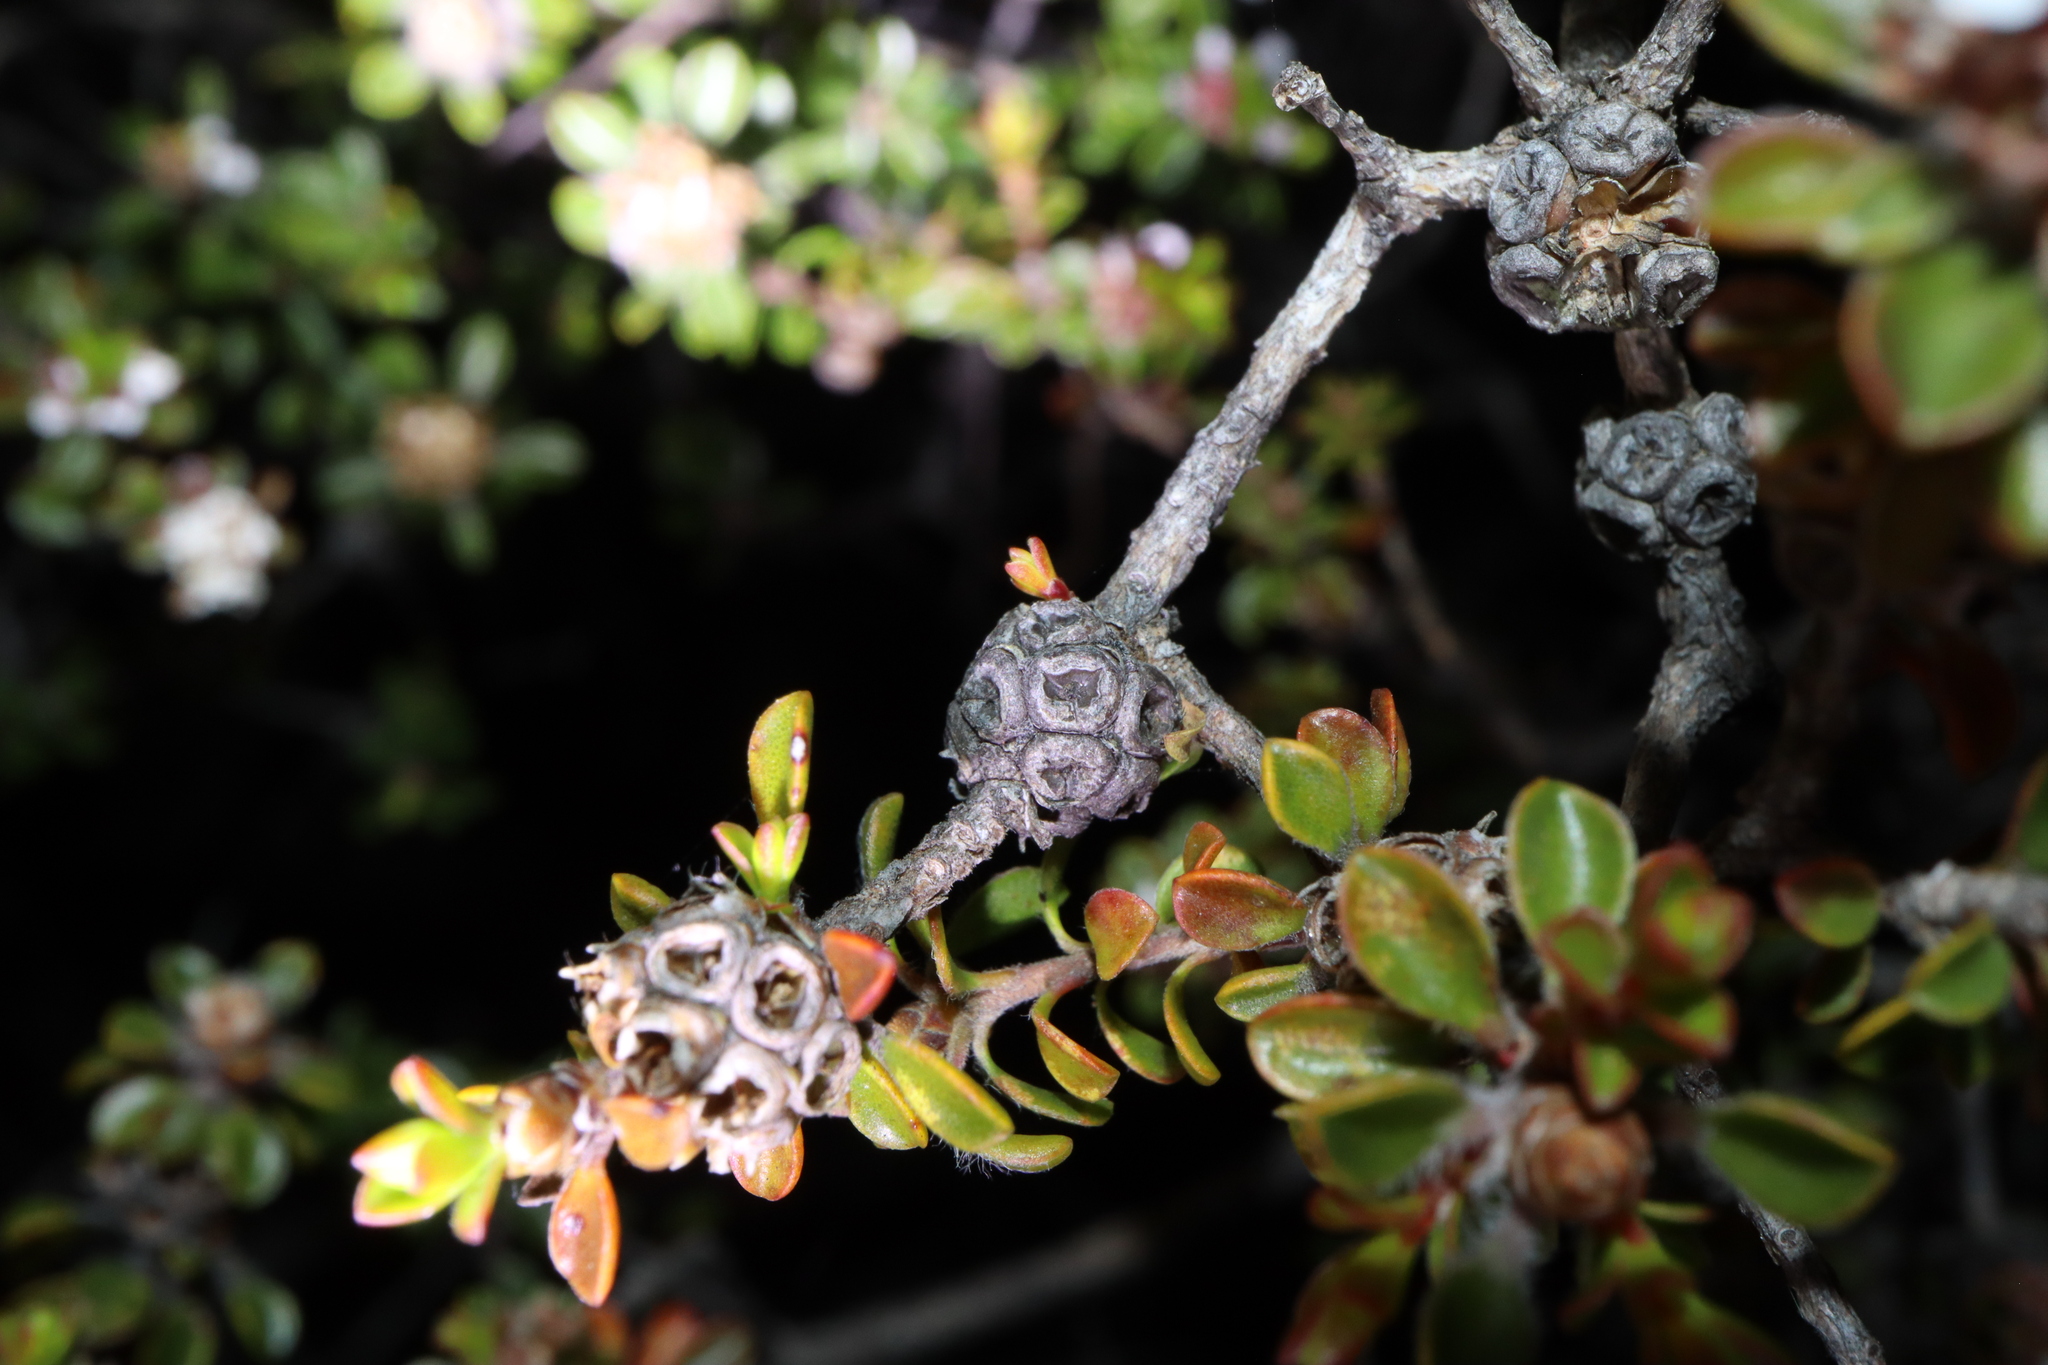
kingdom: Plantae
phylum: Tracheophyta
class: Magnoliopsida
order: Myrtales
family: Myrtaceae
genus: Taxandria
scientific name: Taxandria spathulata
